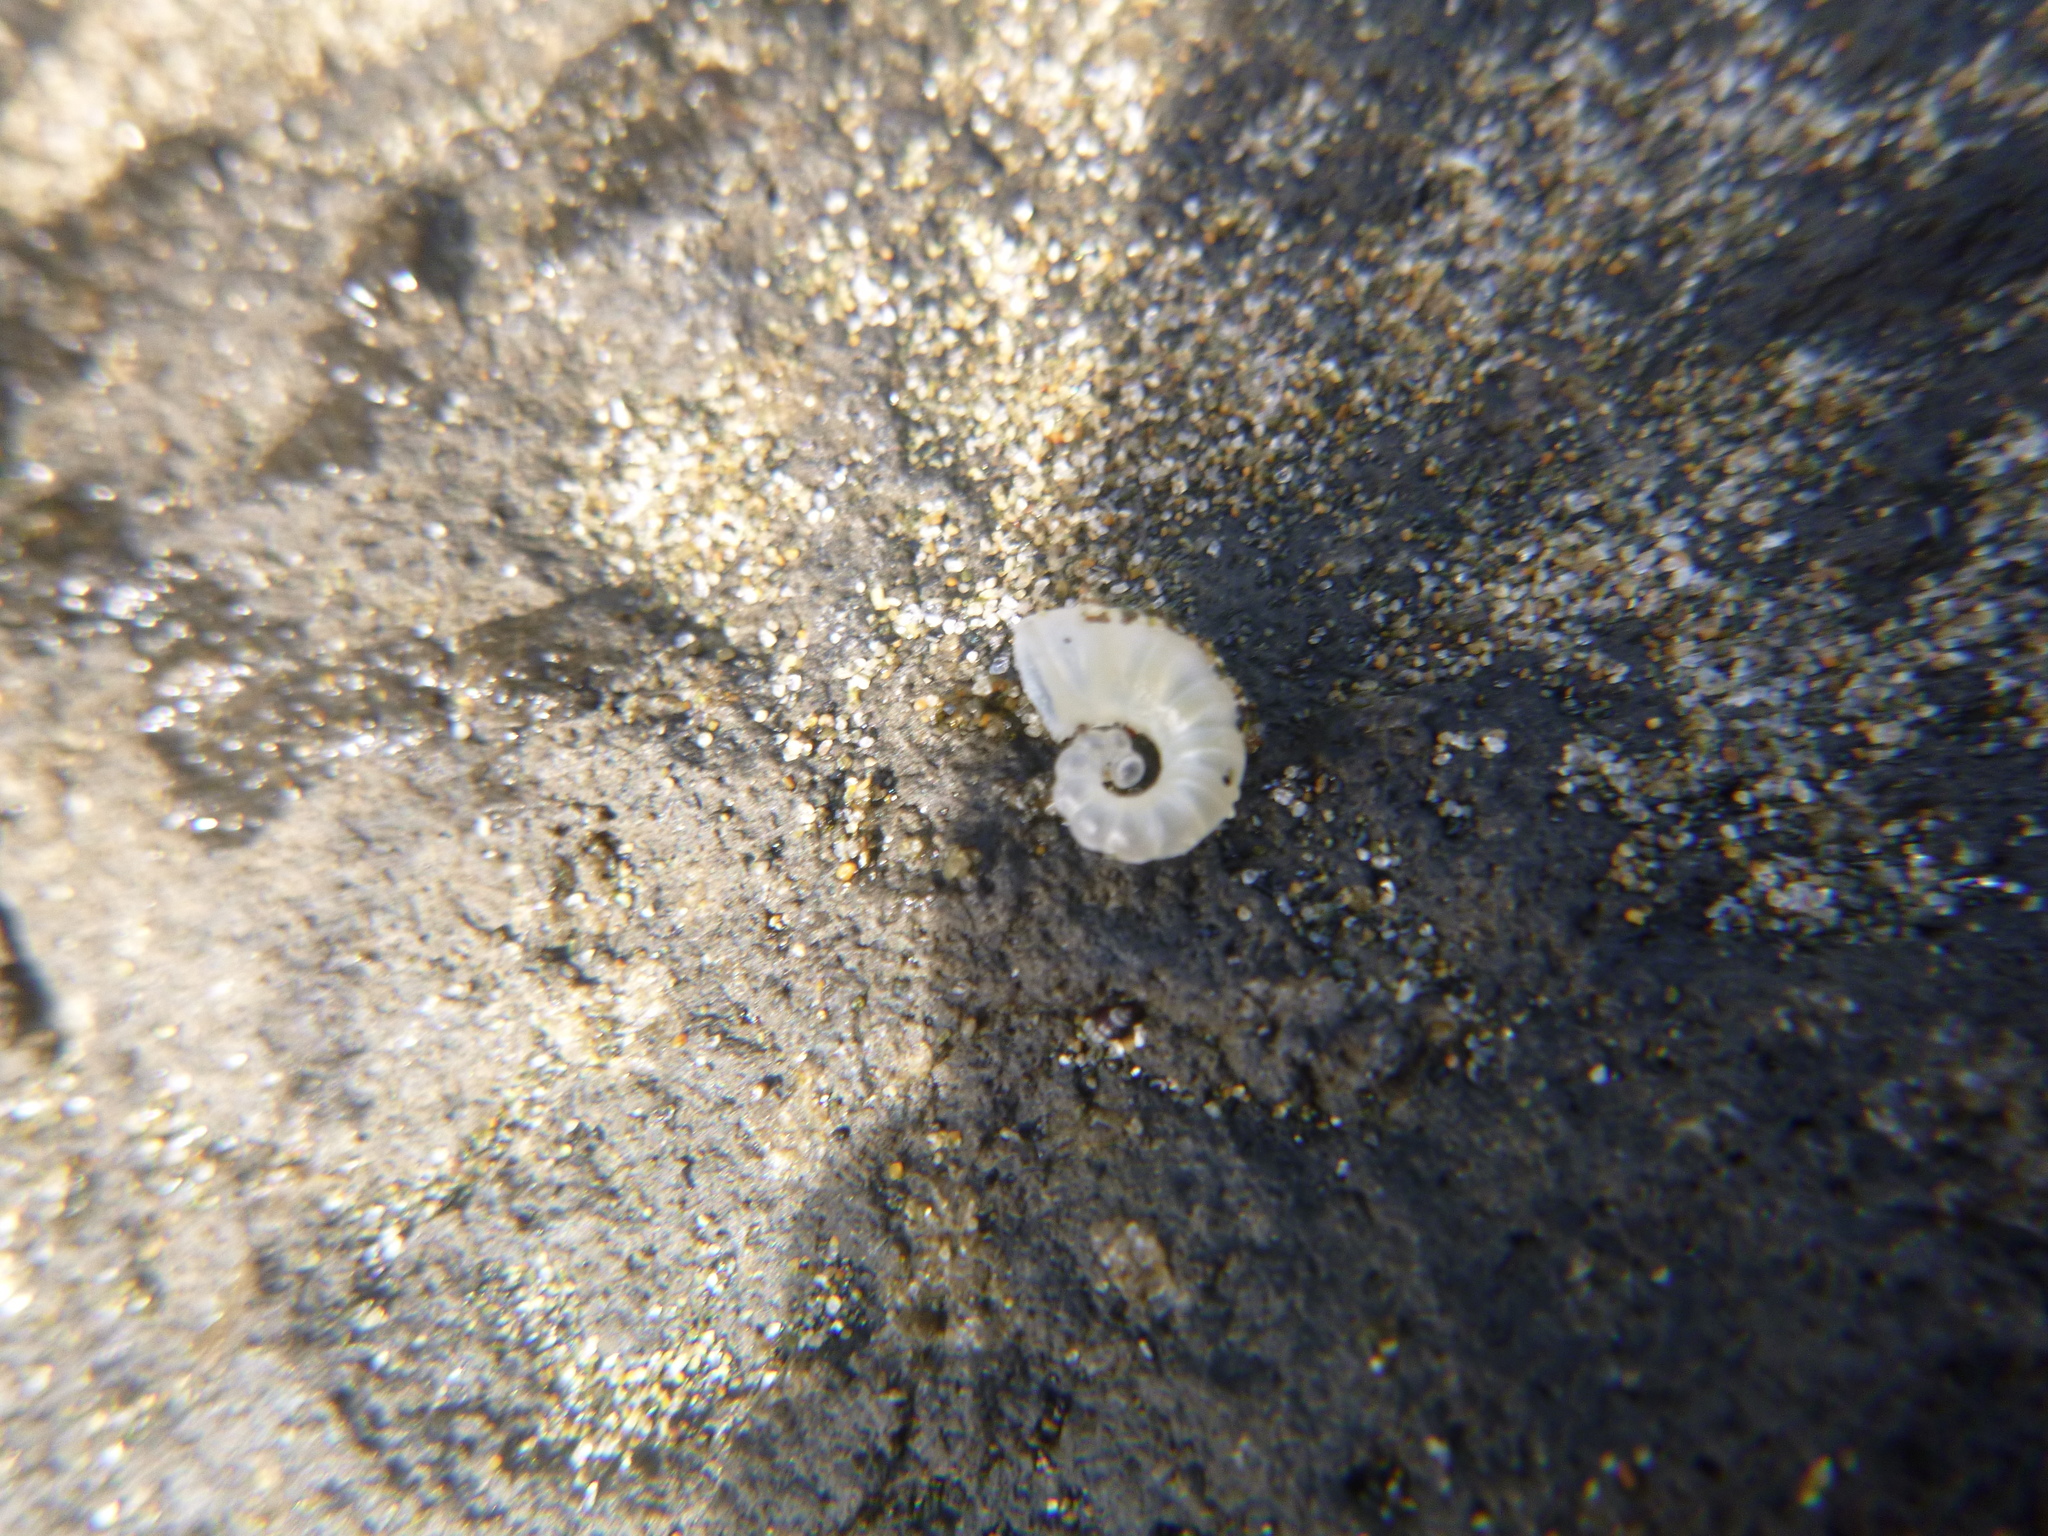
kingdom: Animalia
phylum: Mollusca
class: Cephalopoda
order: Spirulida
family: Spirulidae
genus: Spirula
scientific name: Spirula spirula
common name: Ram's horn squid
